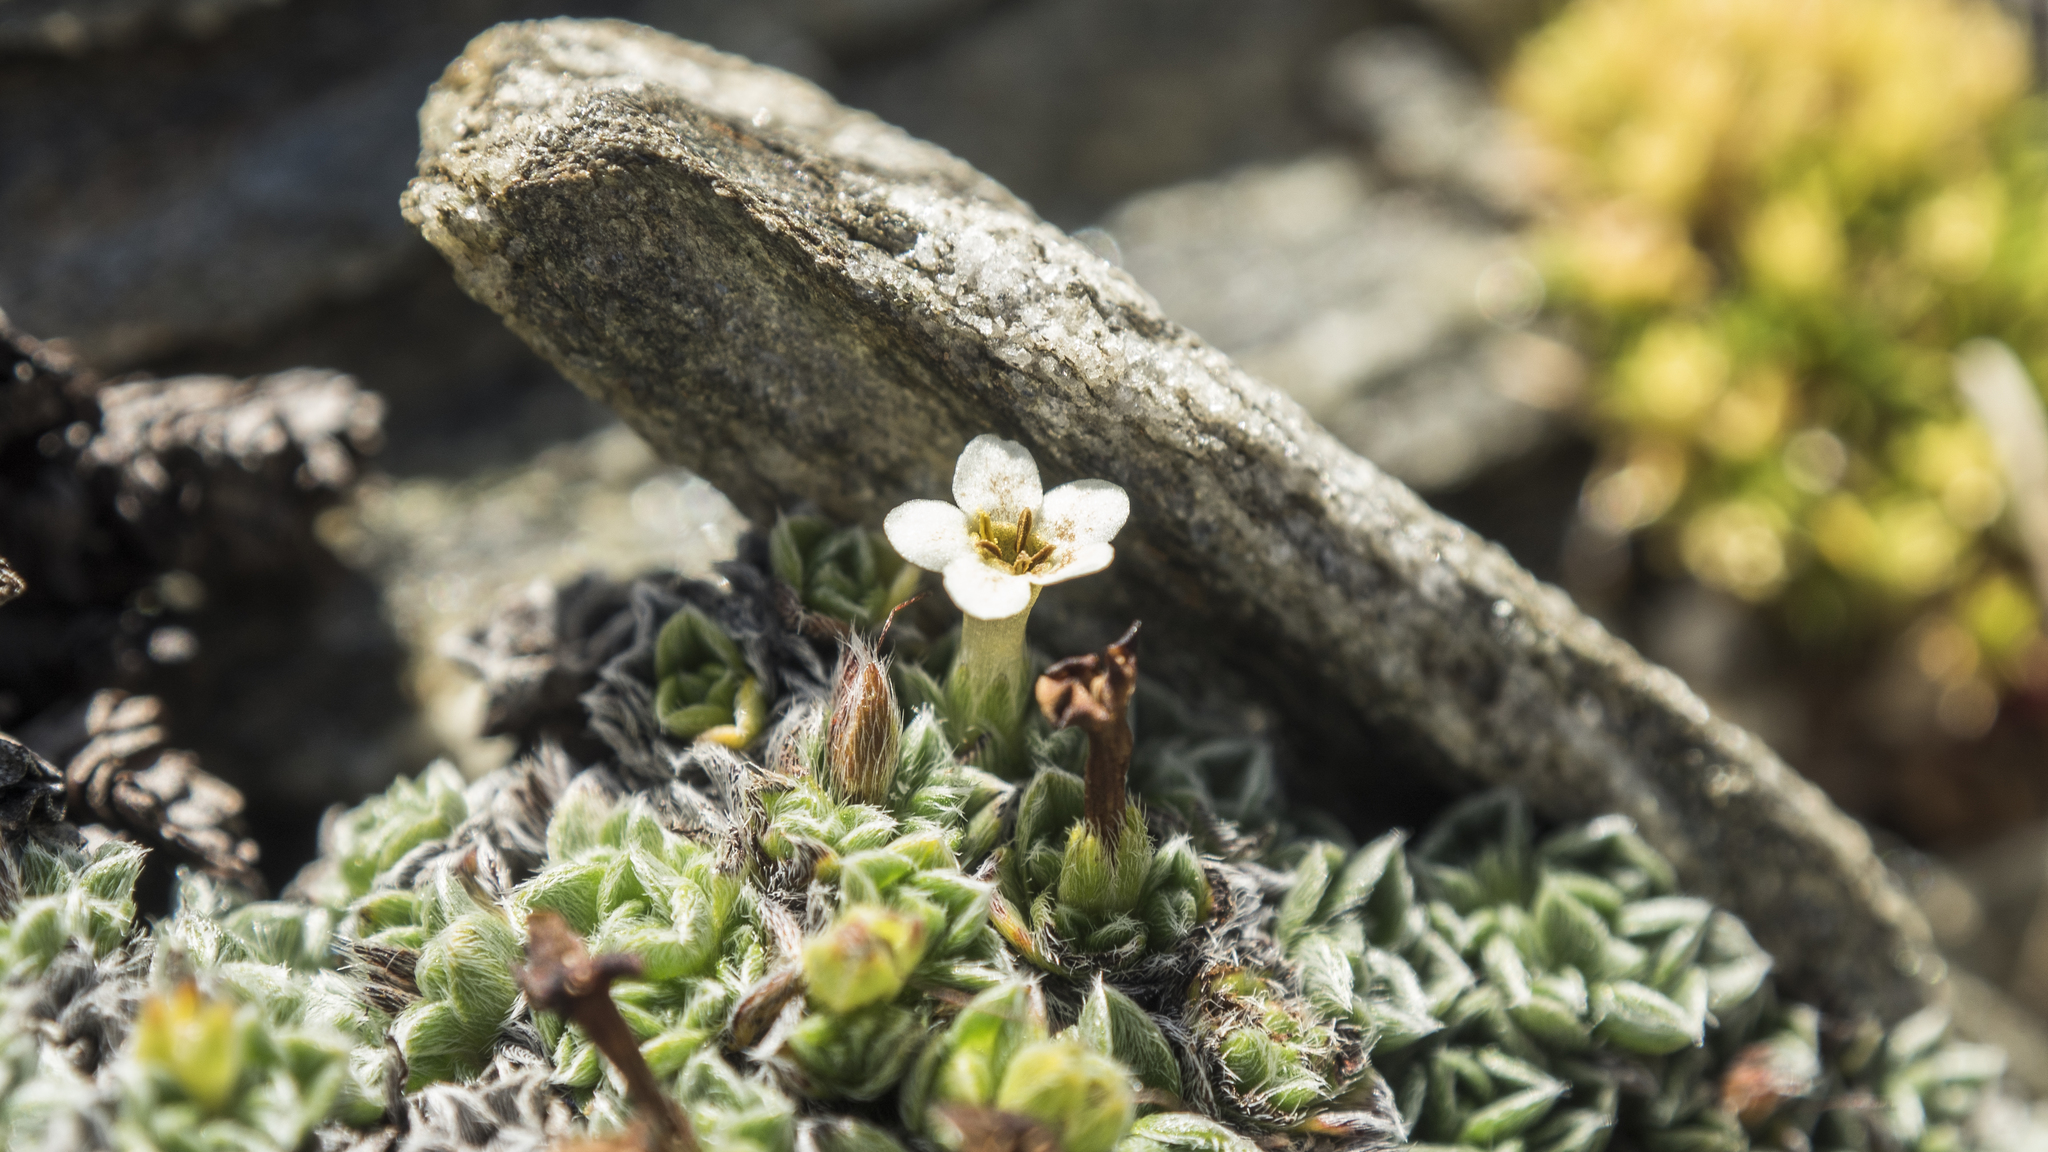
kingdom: Plantae
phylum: Tracheophyta
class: Magnoliopsida
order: Boraginales
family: Boraginaceae
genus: Myosotis
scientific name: Myosotis pulvinaris
